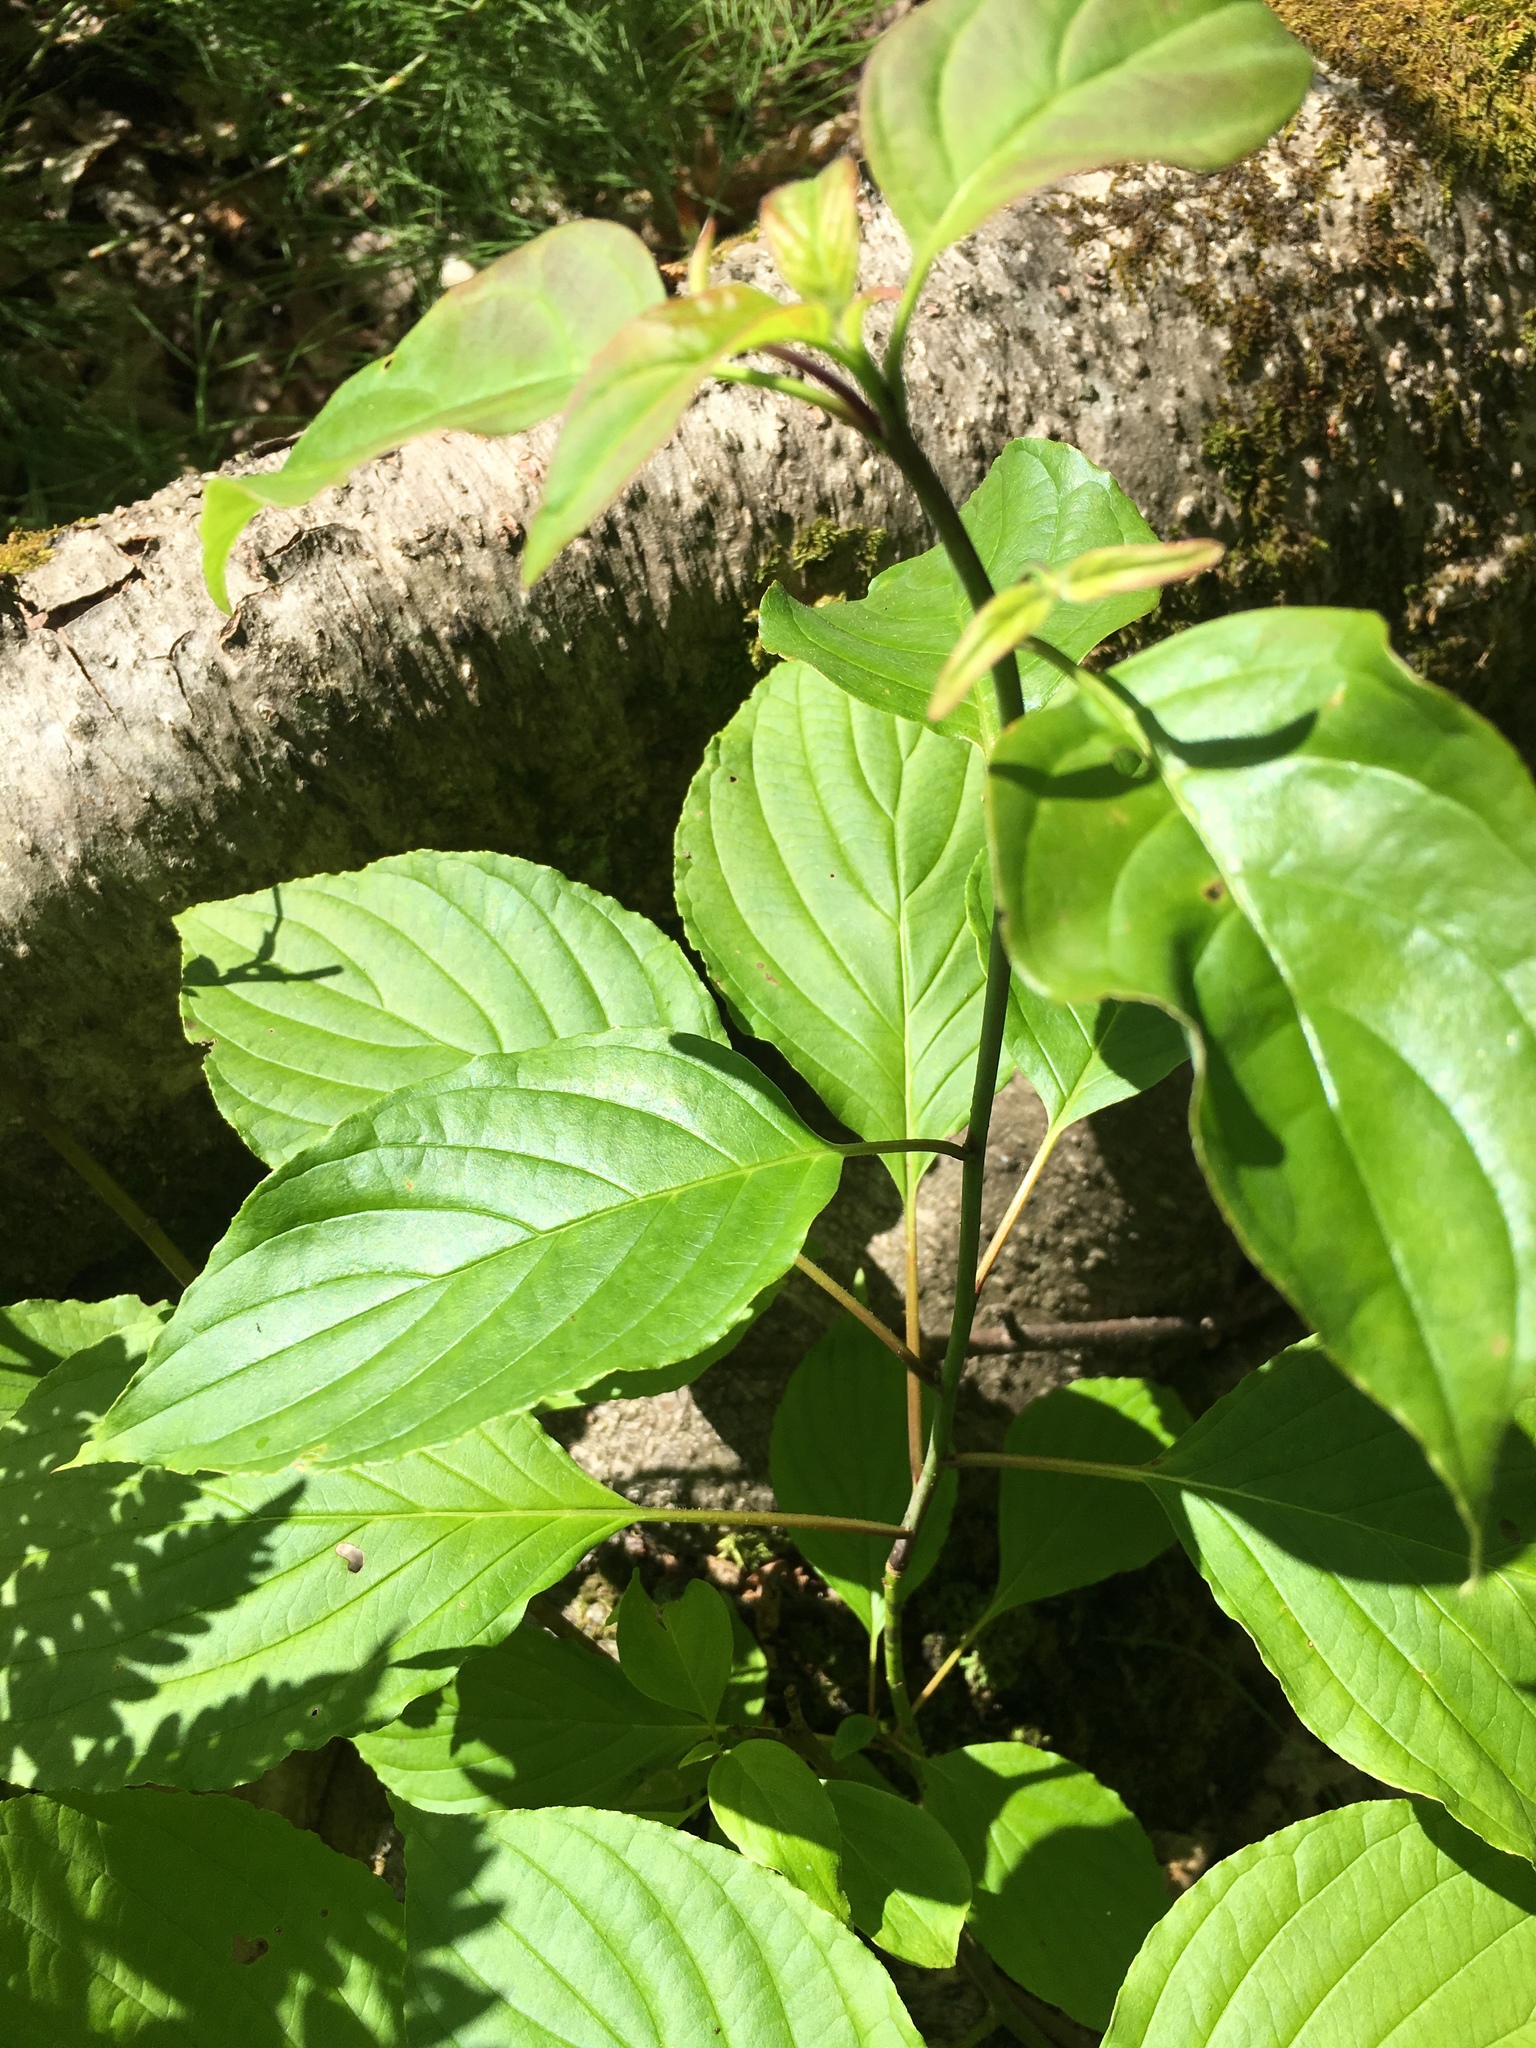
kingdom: Plantae
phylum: Tracheophyta
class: Magnoliopsida
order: Cornales
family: Cornaceae
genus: Cornus
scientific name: Cornus alternifolia
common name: Pagoda dogwood
